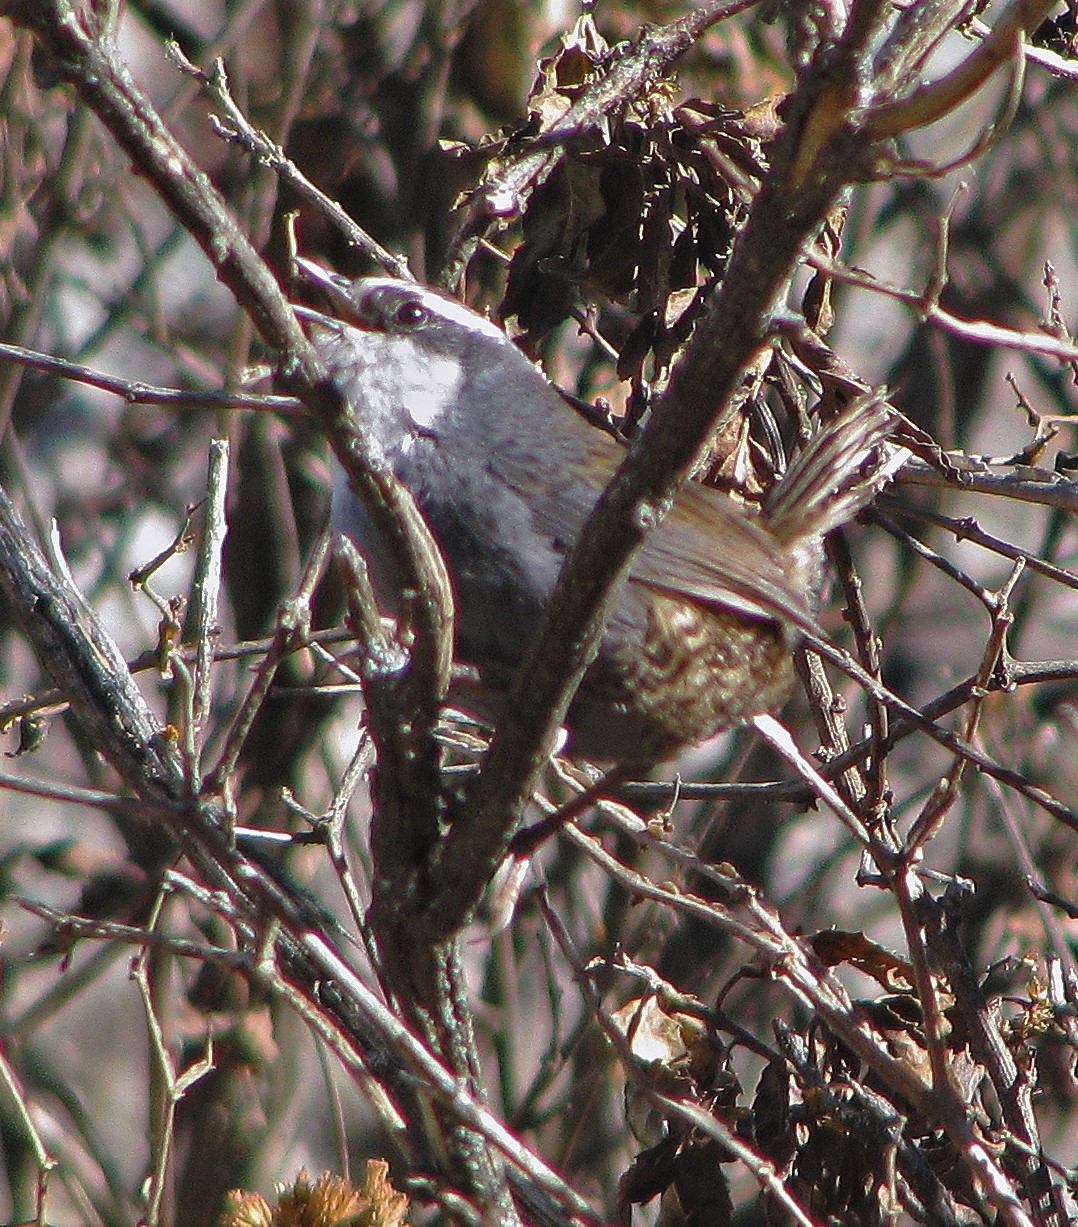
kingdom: Animalia
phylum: Chordata
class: Aves
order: Passeriformes
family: Rhinocryptidae
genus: Scytalopus
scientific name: Scytalopus superciliaris
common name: White-browed tapaculo
